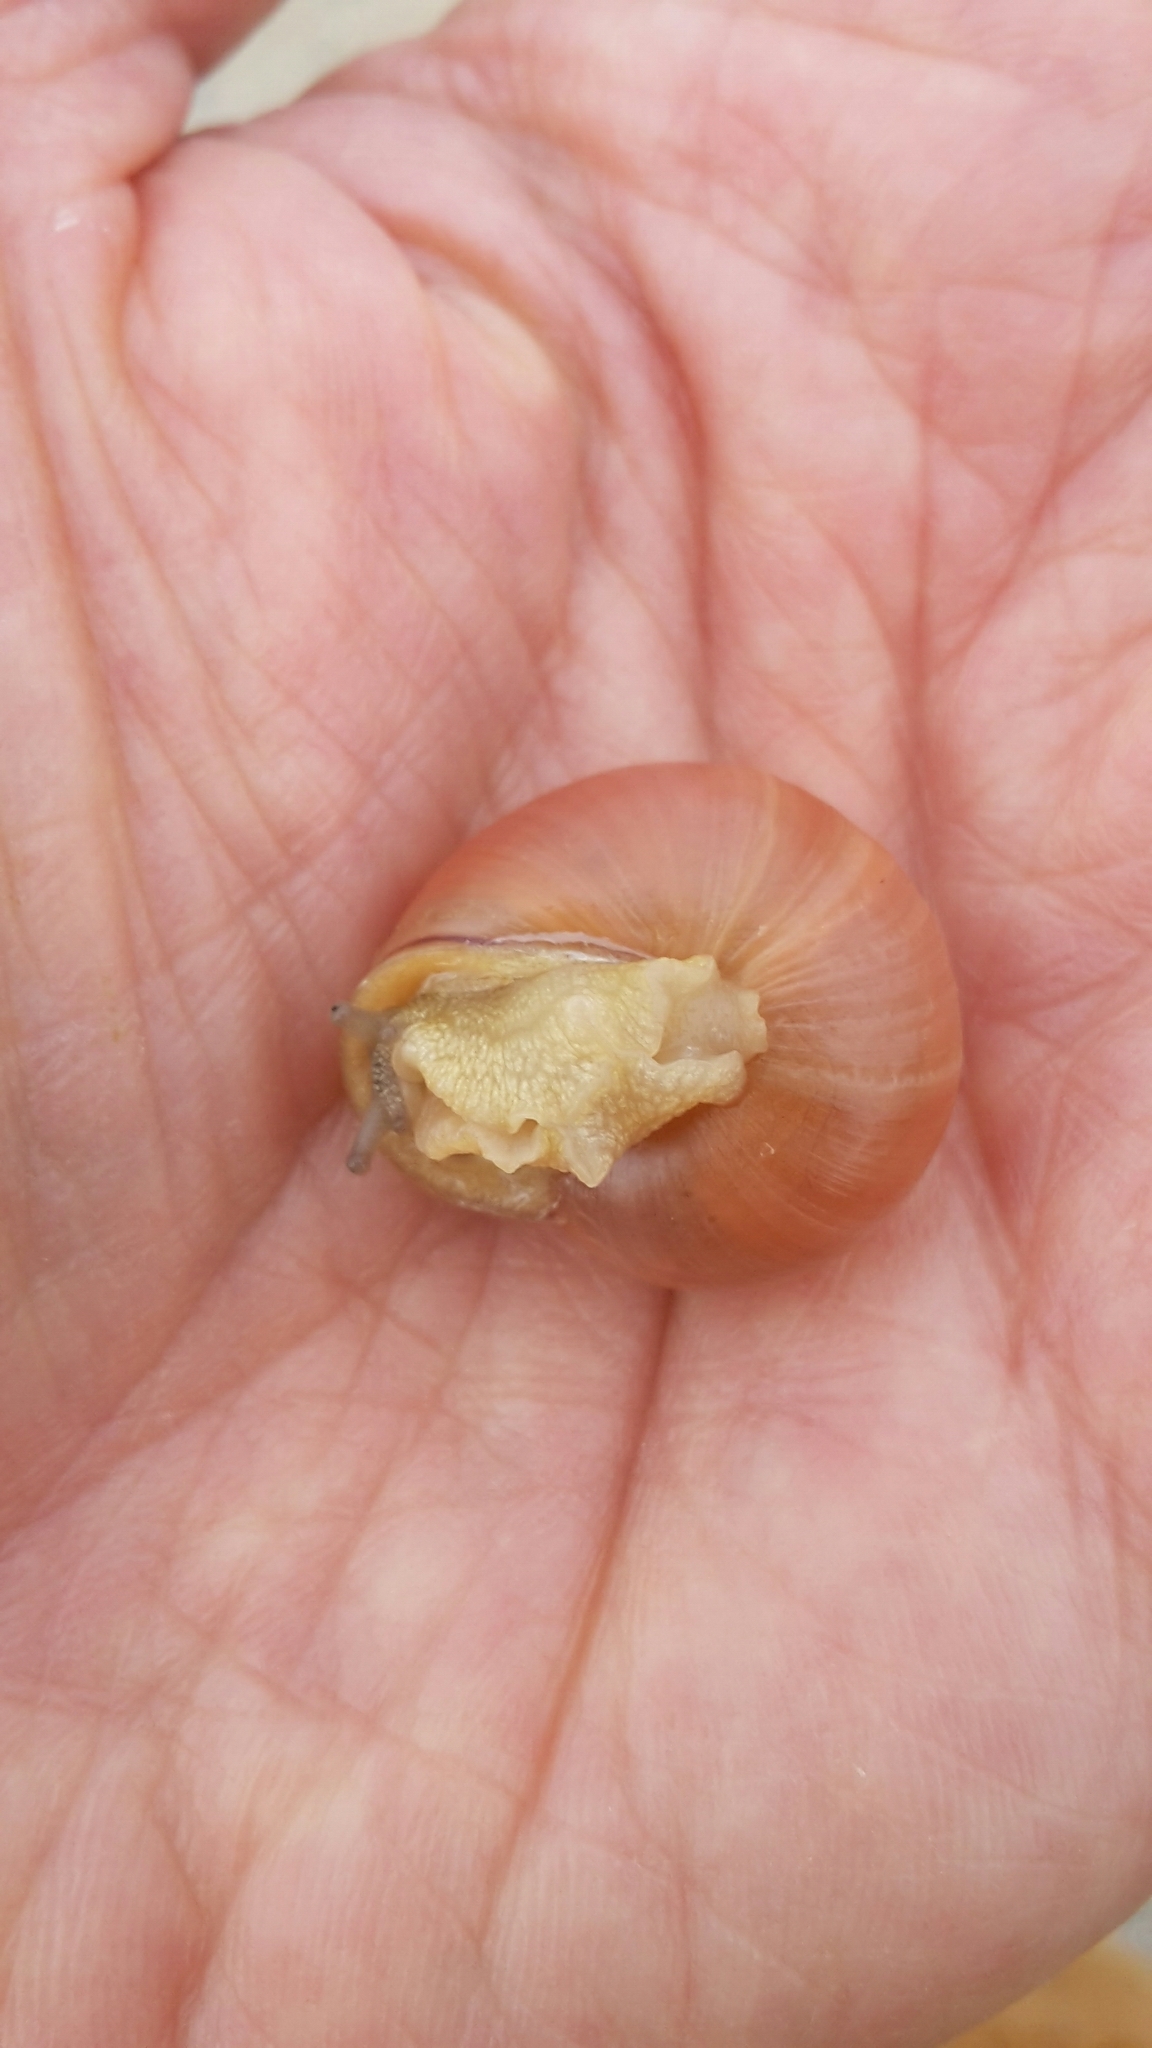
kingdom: Animalia
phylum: Mollusca
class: Gastropoda
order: Stylommatophora
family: Helicidae
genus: Cepaea
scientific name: Cepaea nemoralis
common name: Grovesnail
